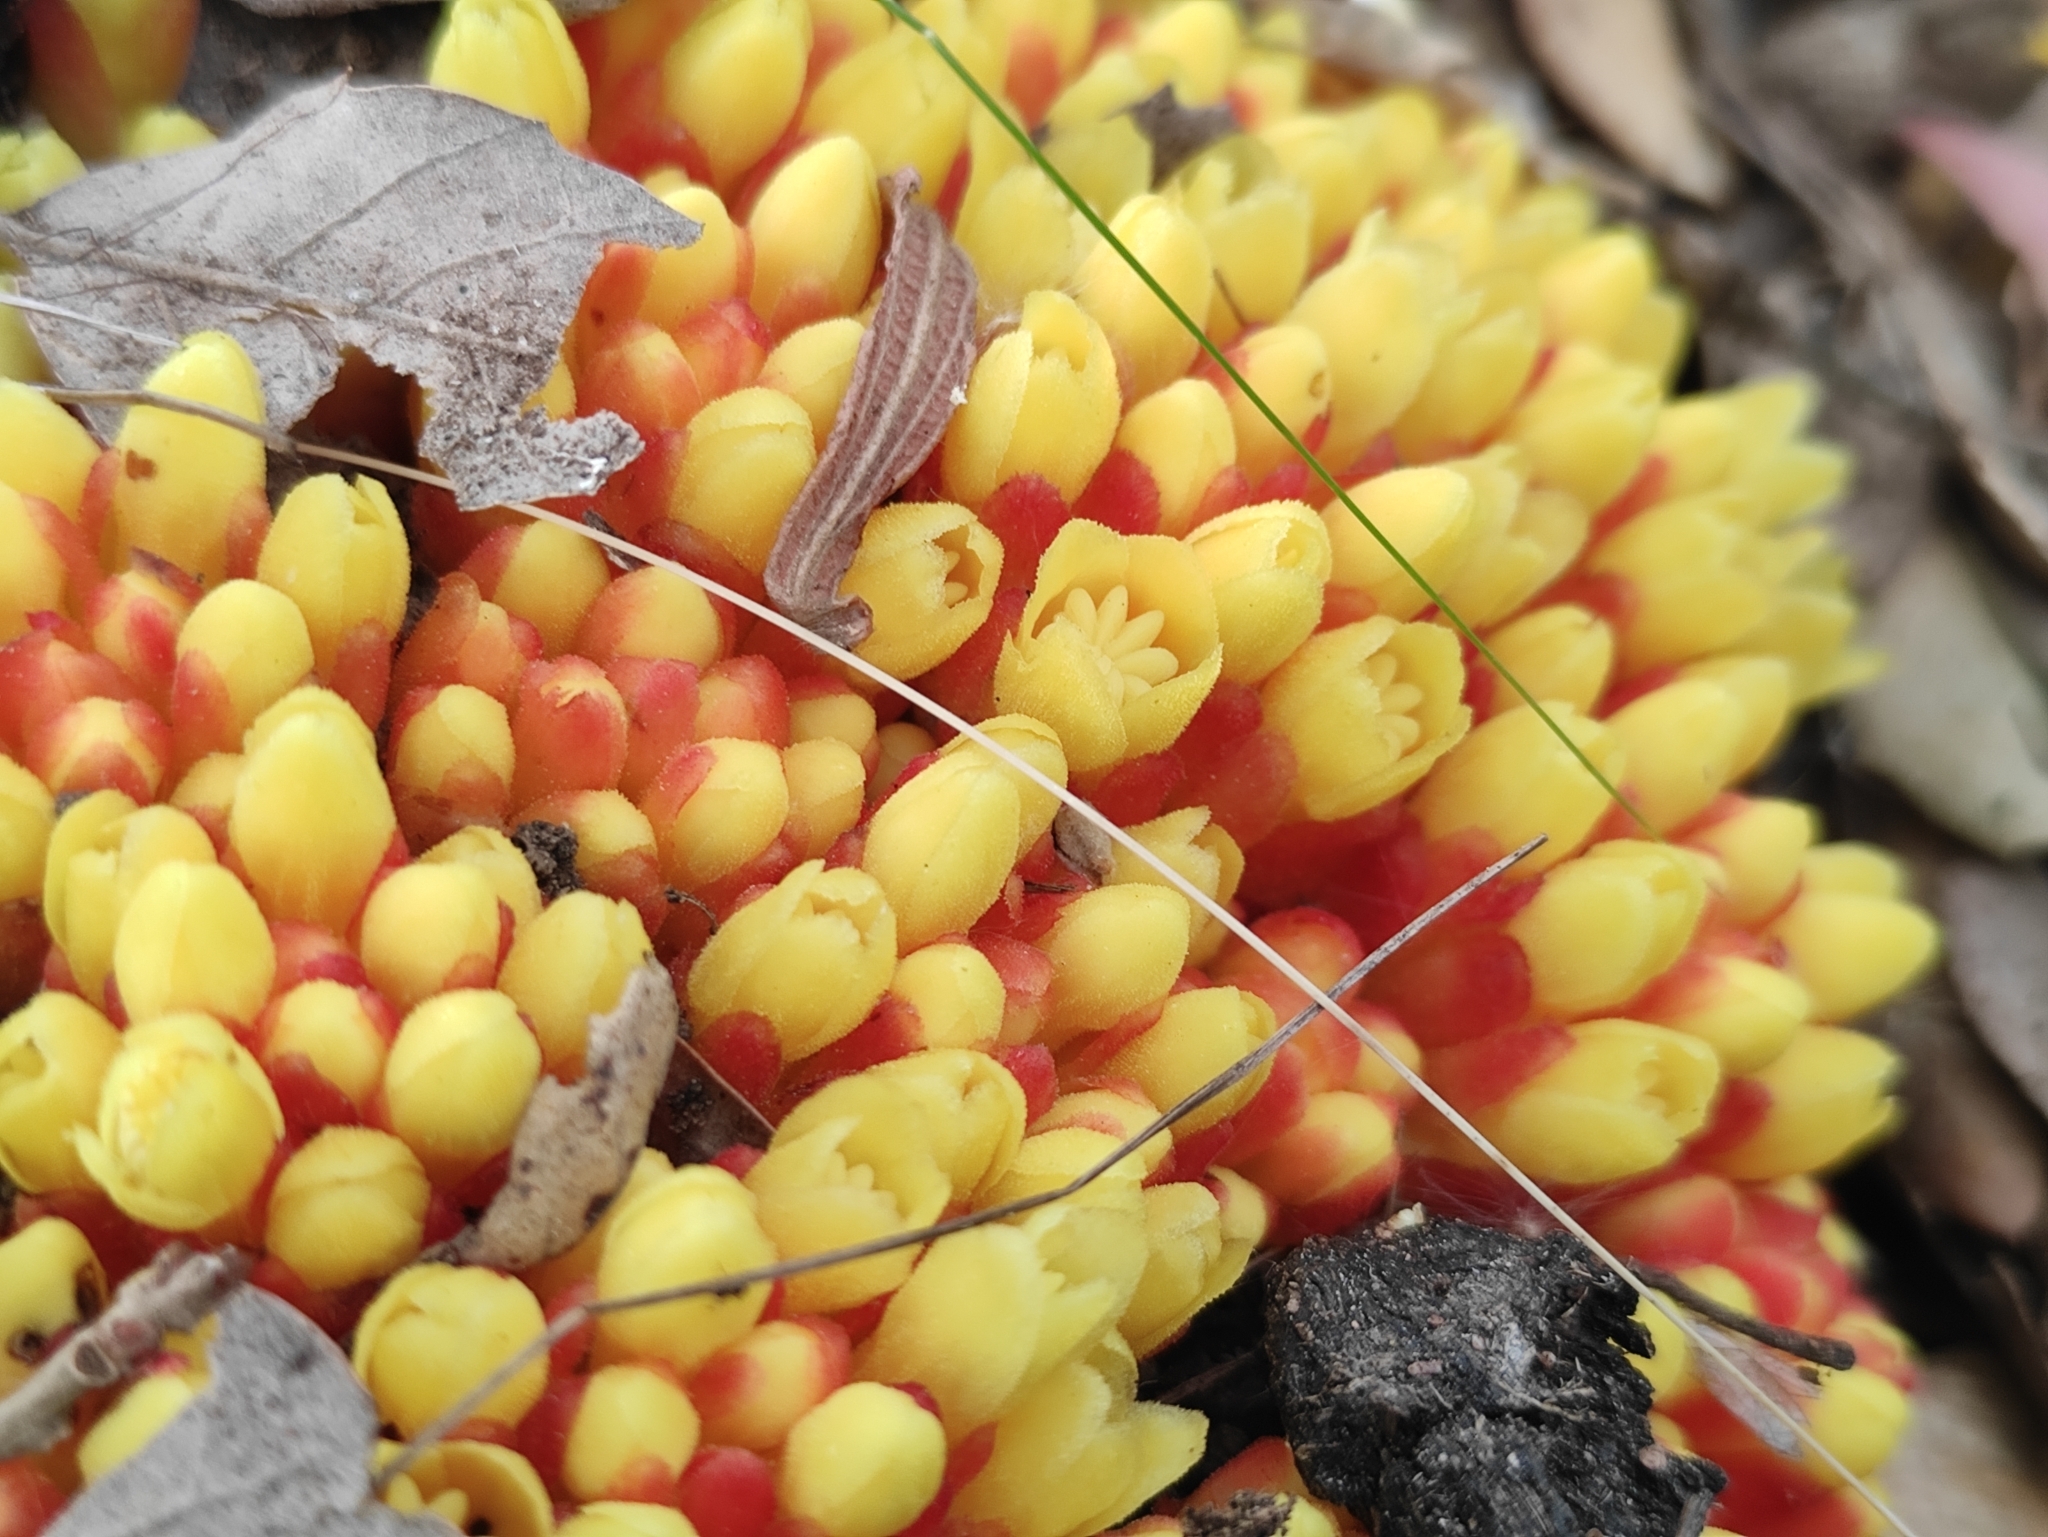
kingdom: Plantae
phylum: Tracheophyta
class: Magnoliopsida
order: Malvales
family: Cytinaceae
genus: Cytinus
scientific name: Cytinus hypocistis
